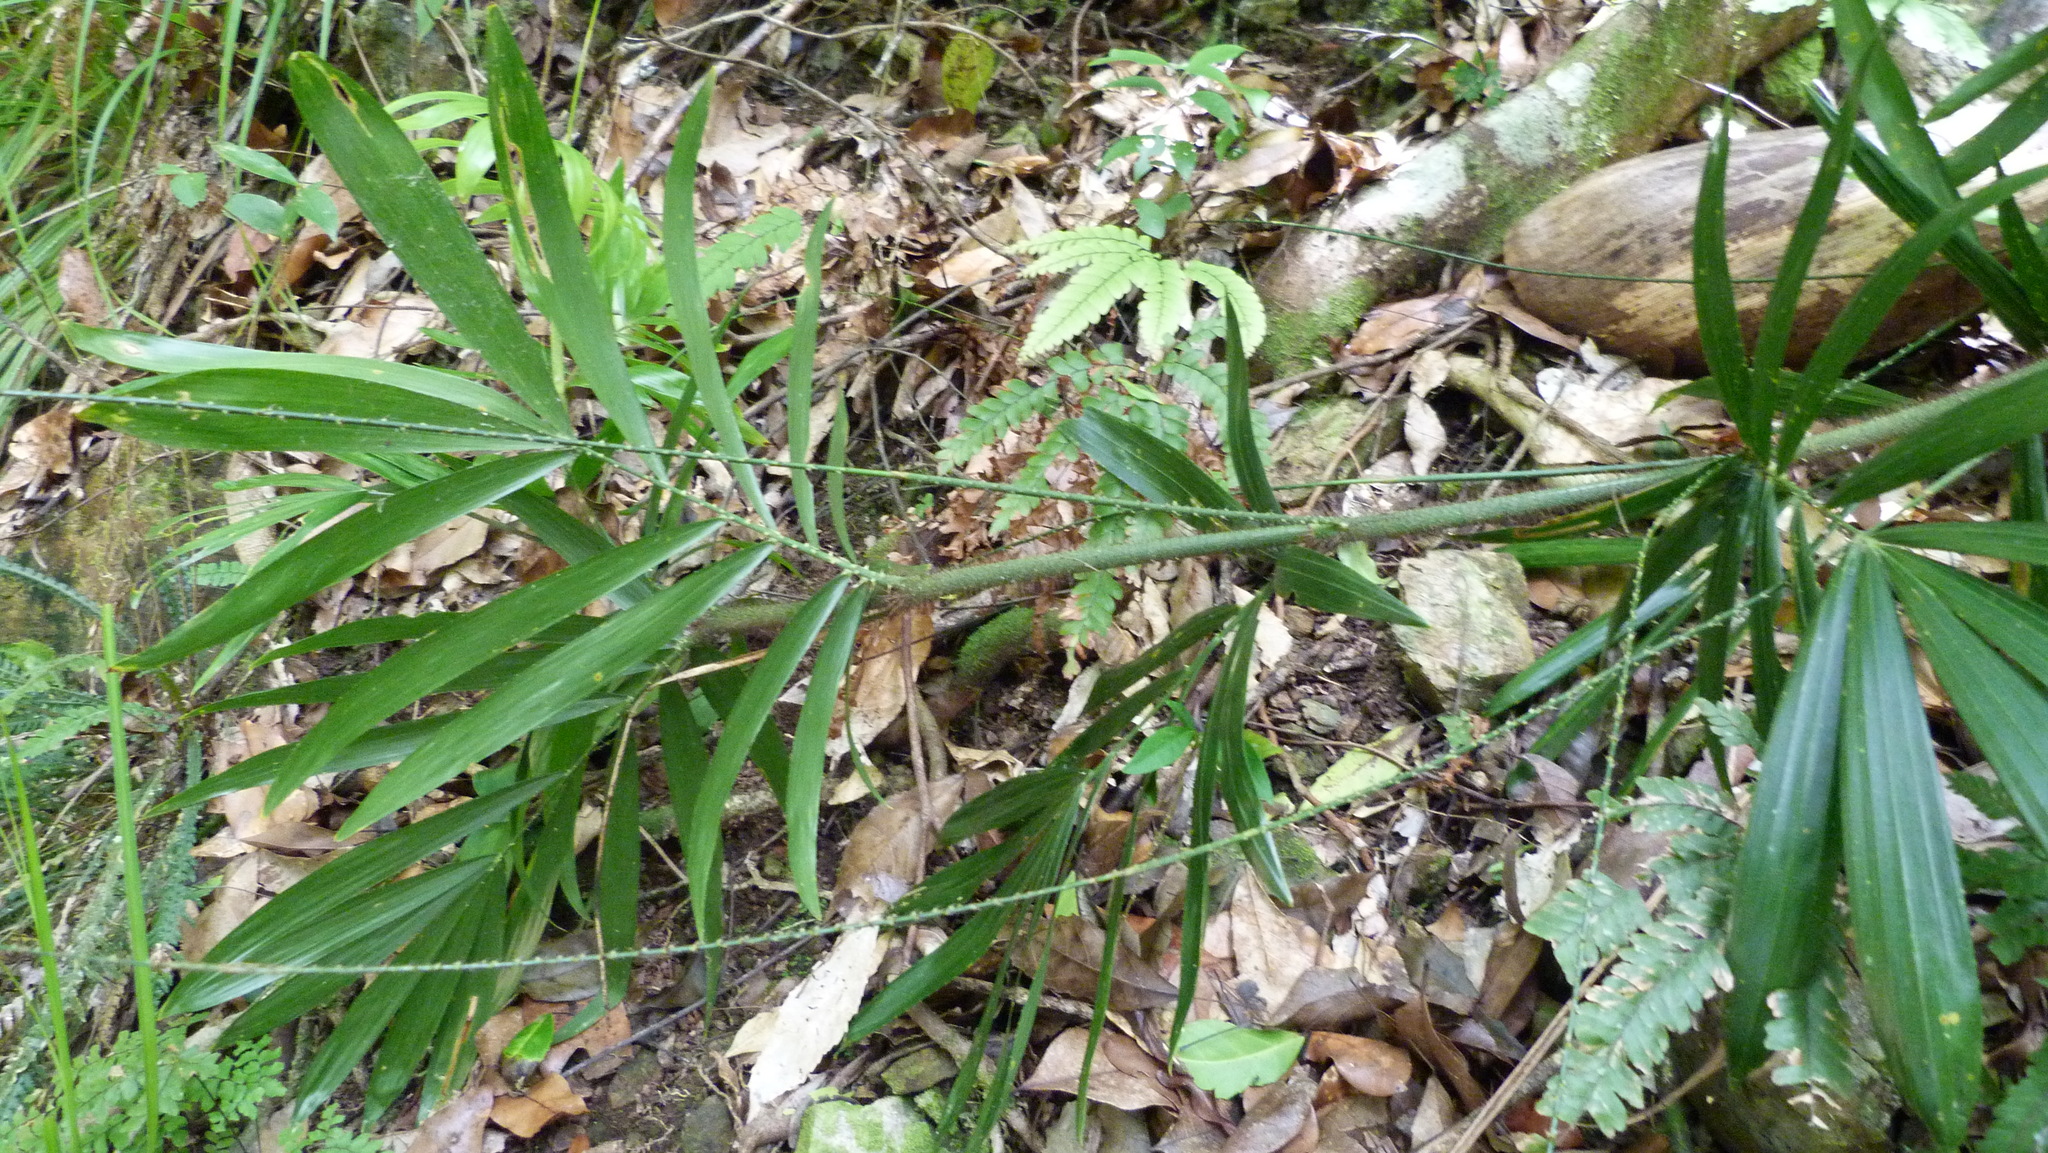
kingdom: Plantae
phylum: Tracheophyta
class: Liliopsida
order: Arecales
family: Arecaceae
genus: Calamus
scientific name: Calamus muelleri
